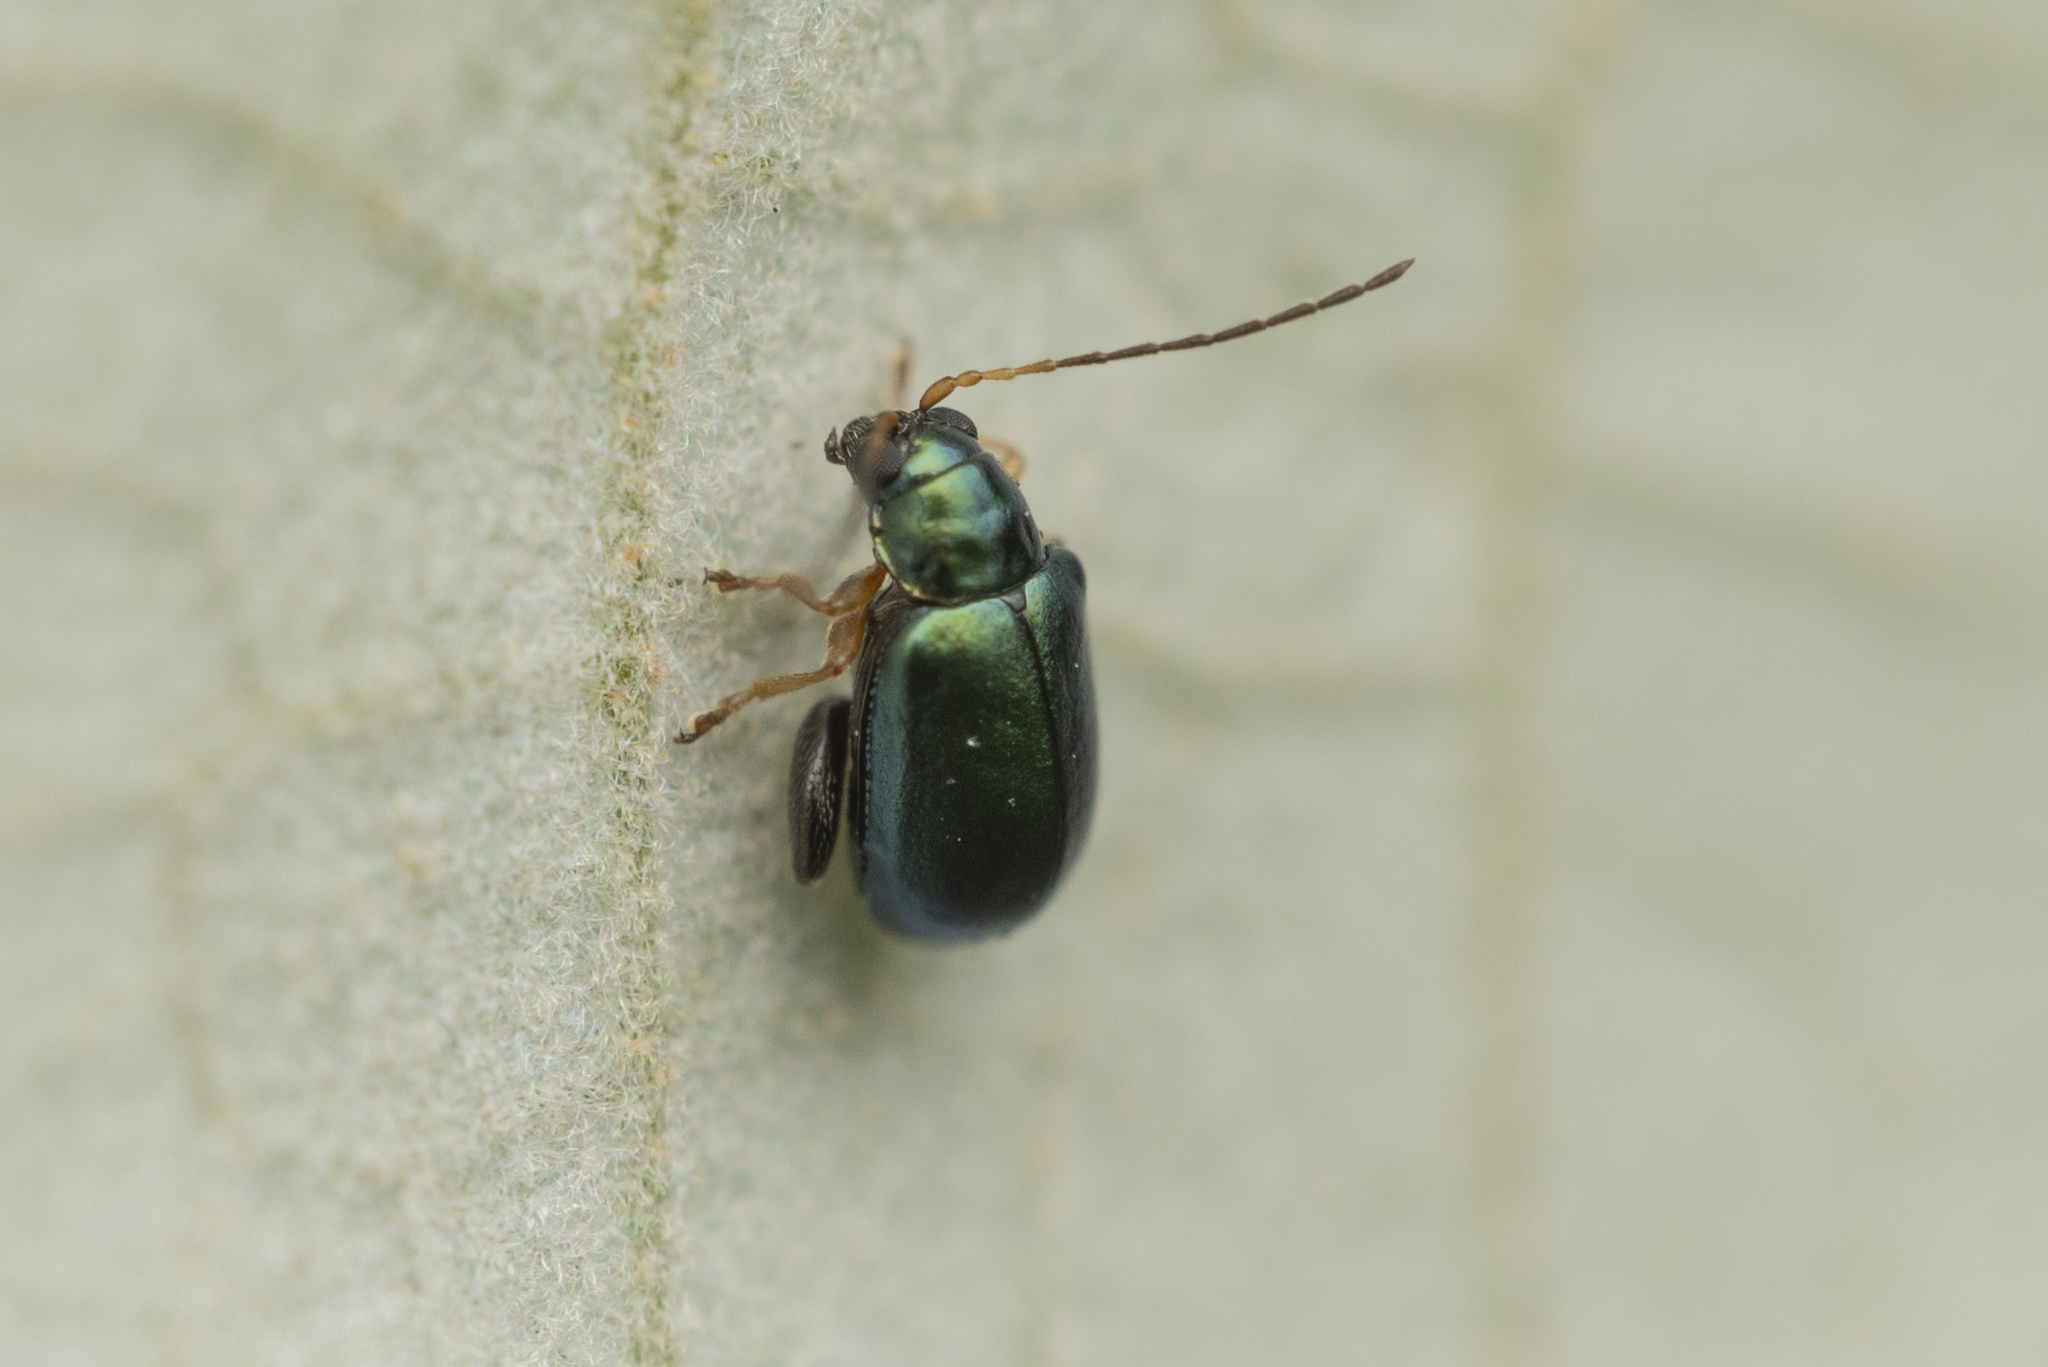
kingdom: Animalia
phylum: Arthropoda
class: Insecta
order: Coleoptera
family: Chrysomelidae
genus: Aphthona
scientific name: Aphthona strigosa
